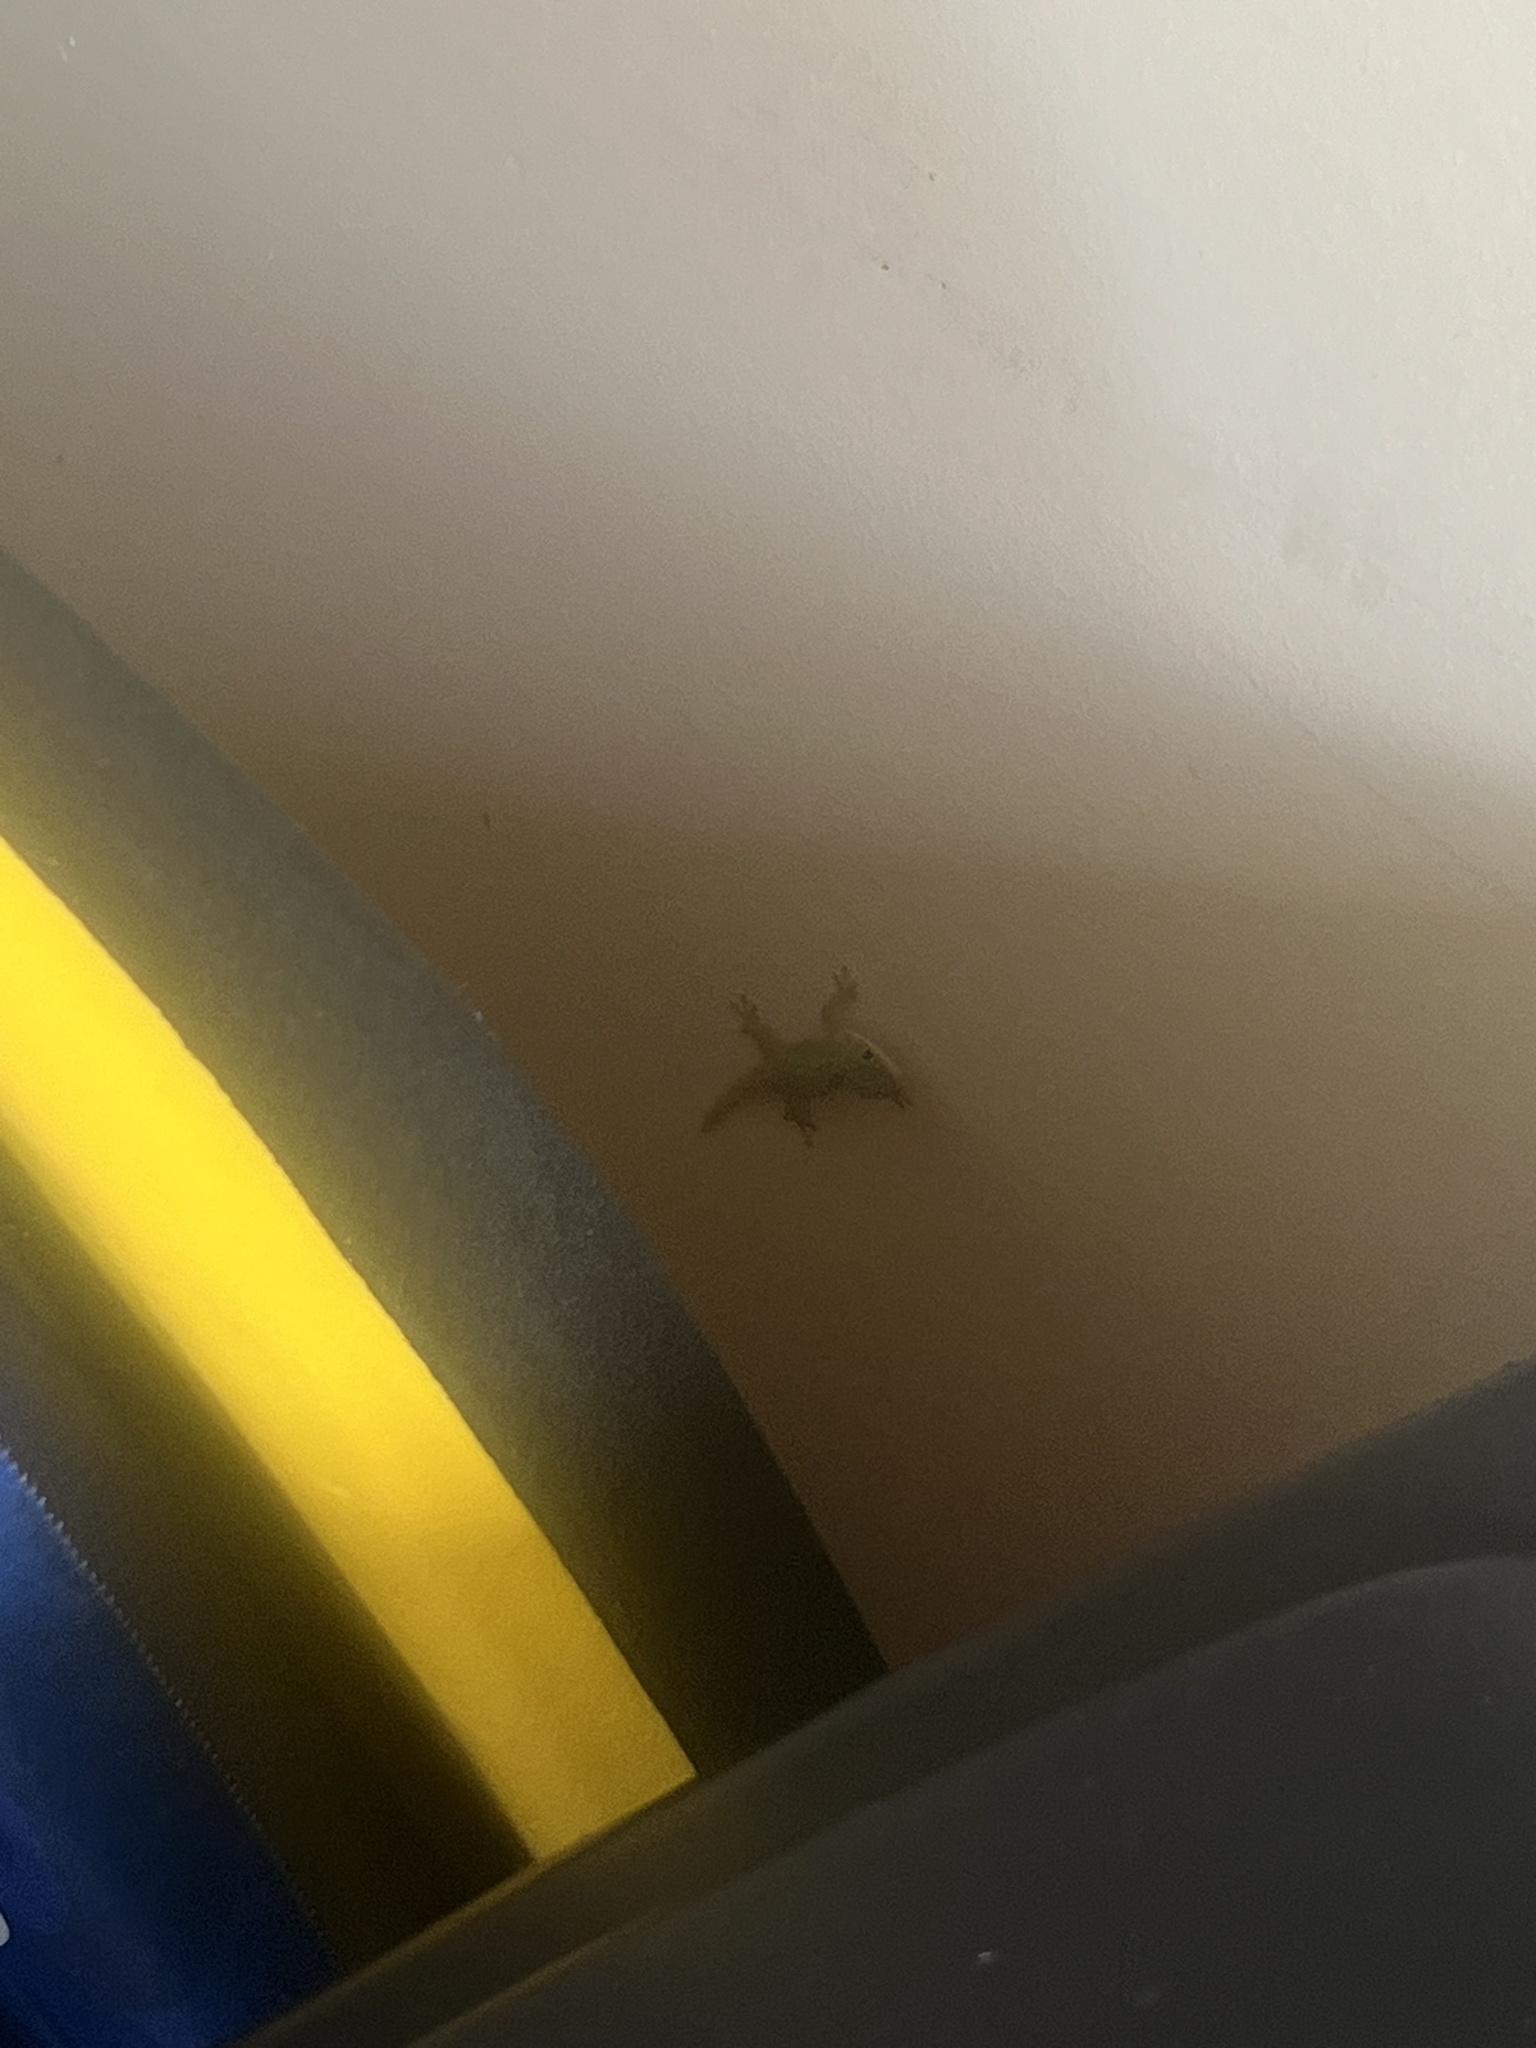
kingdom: Animalia
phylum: Chordata
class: Squamata
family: Gekkonidae
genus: Phelsuma
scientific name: Phelsuma laticauda
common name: Gold dust day gecko
